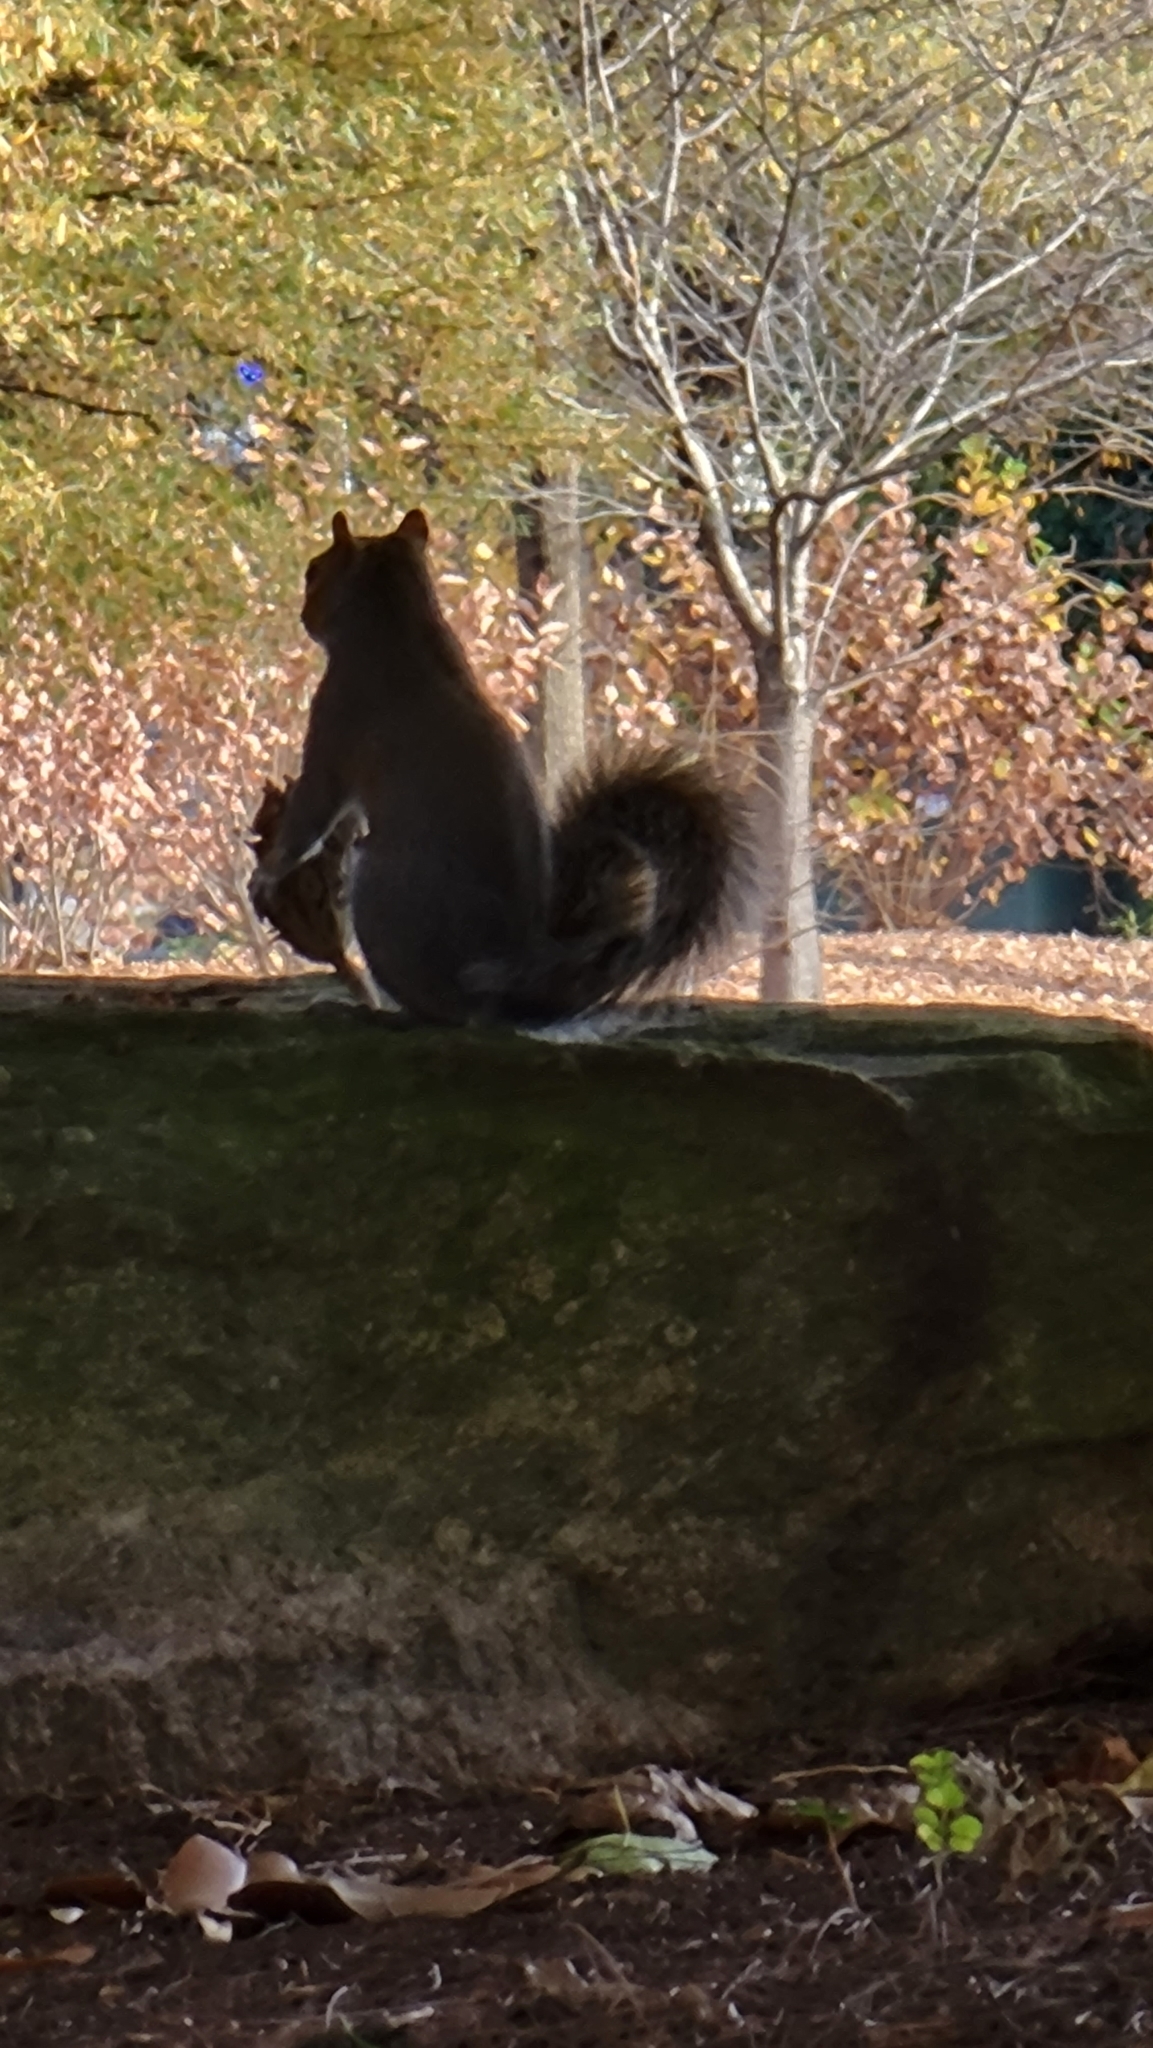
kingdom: Animalia
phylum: Chordata
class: Mammalia
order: Rodentia
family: Sciuridae
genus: Sciurus
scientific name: Sciurus carolinensis
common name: Eastern gray squirrel
